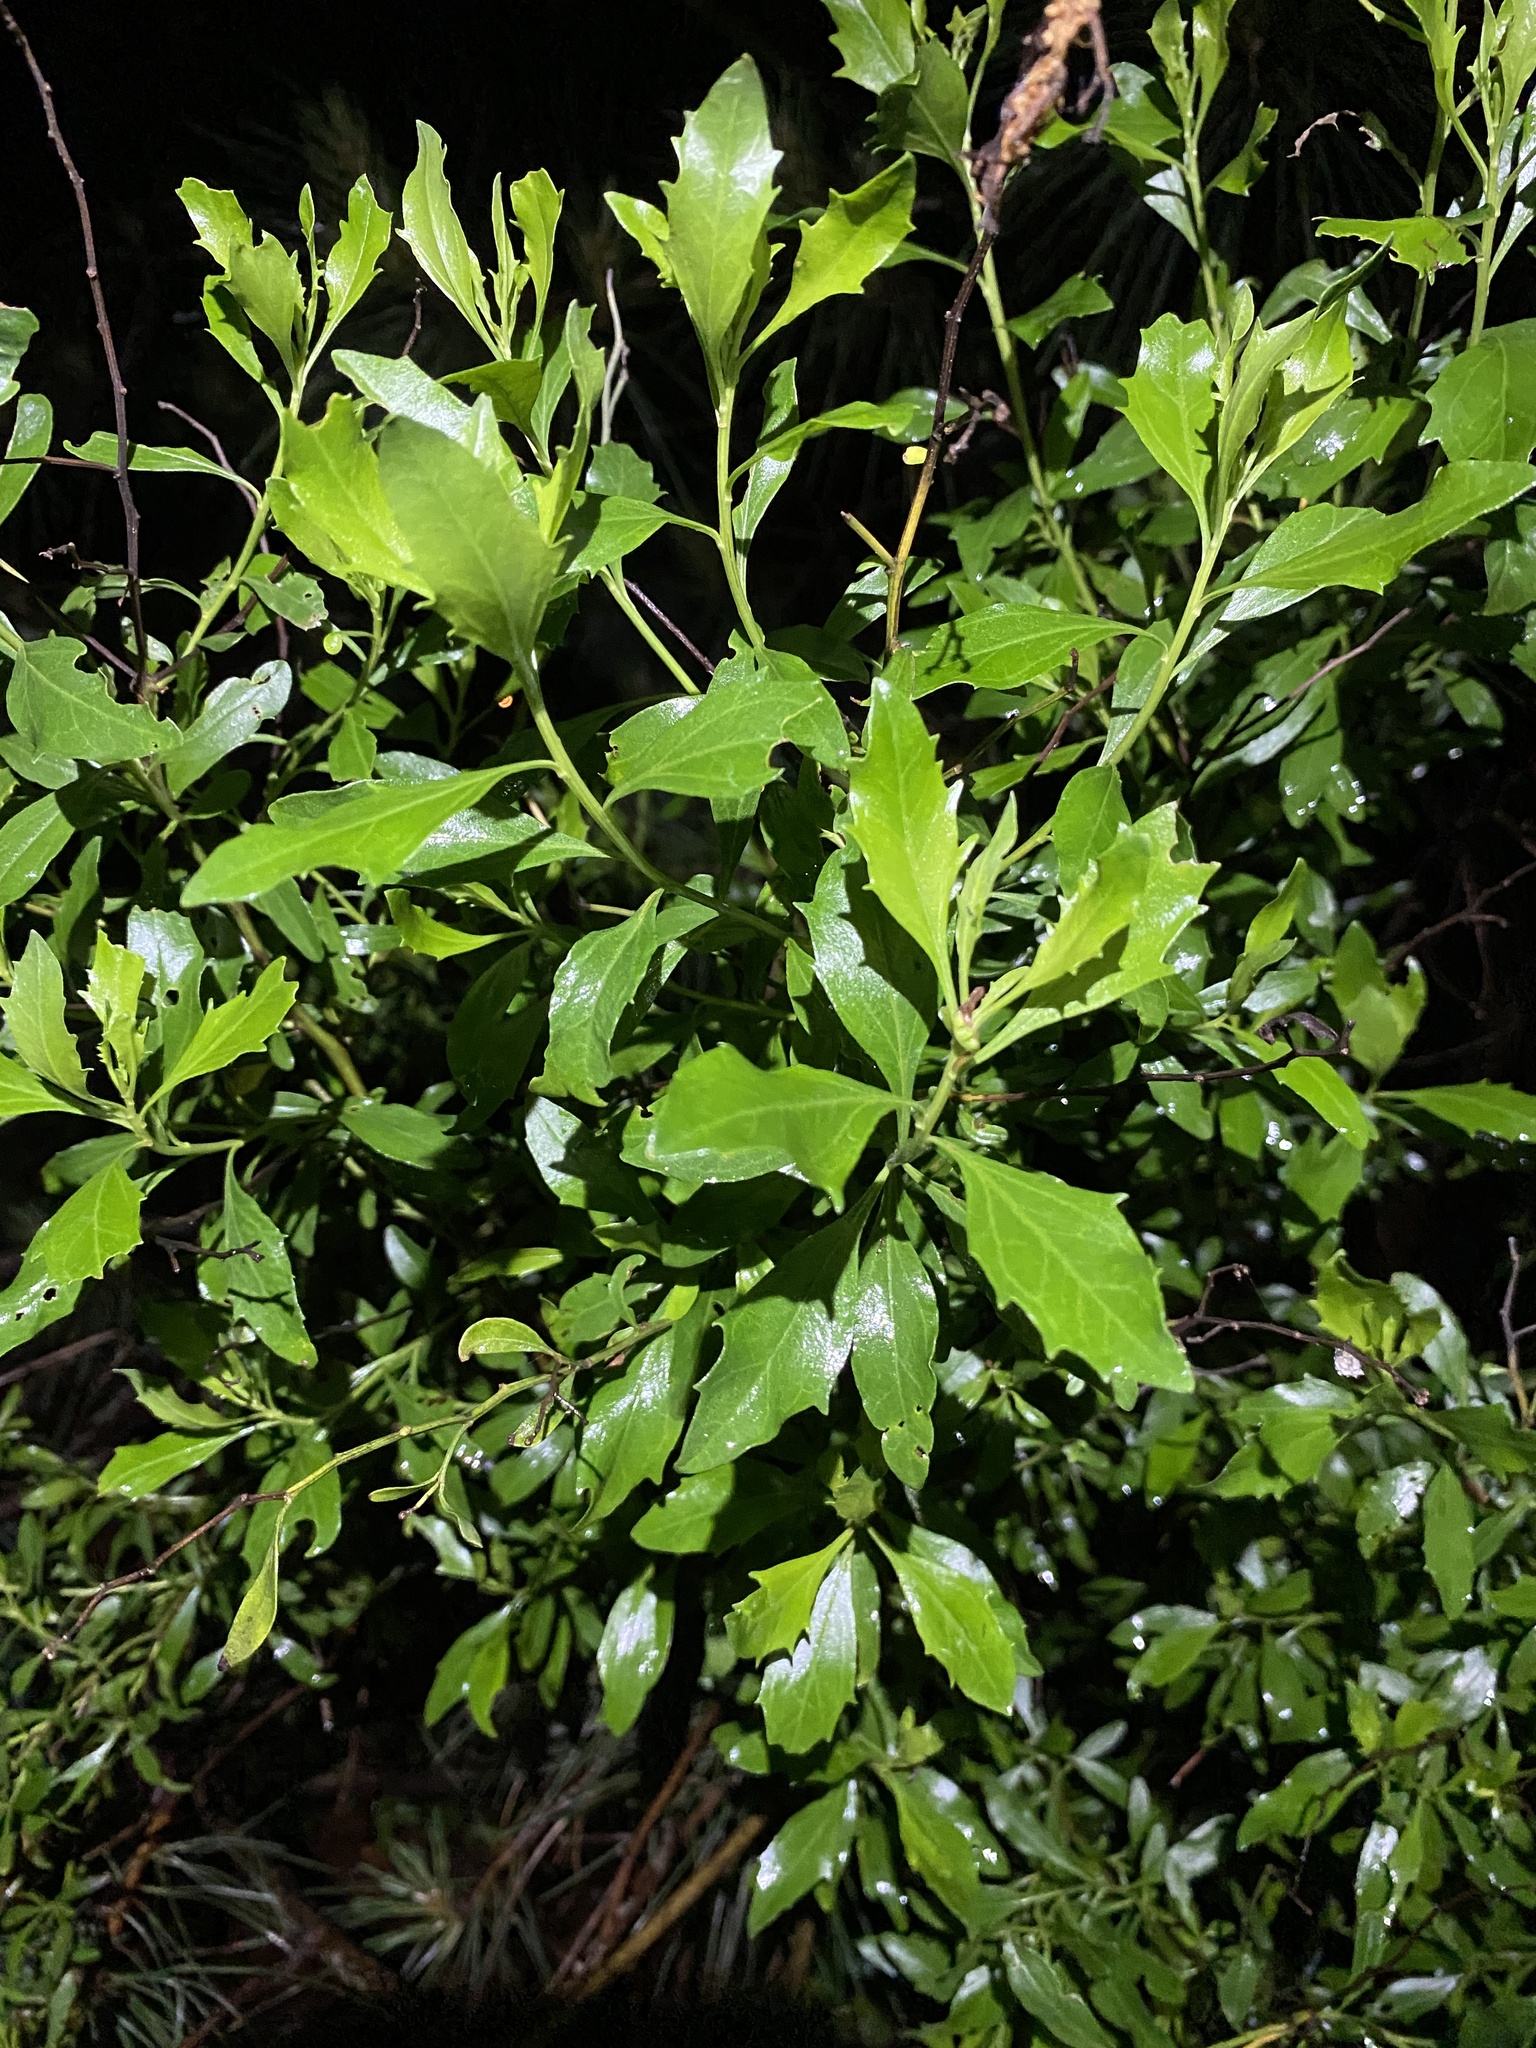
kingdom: Plantae
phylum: Tracheophyta
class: Magnoliopsida
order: Asterales
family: Asteraceae
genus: Baccharis
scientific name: Baccharis halimifolia
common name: Eastern baccharis
